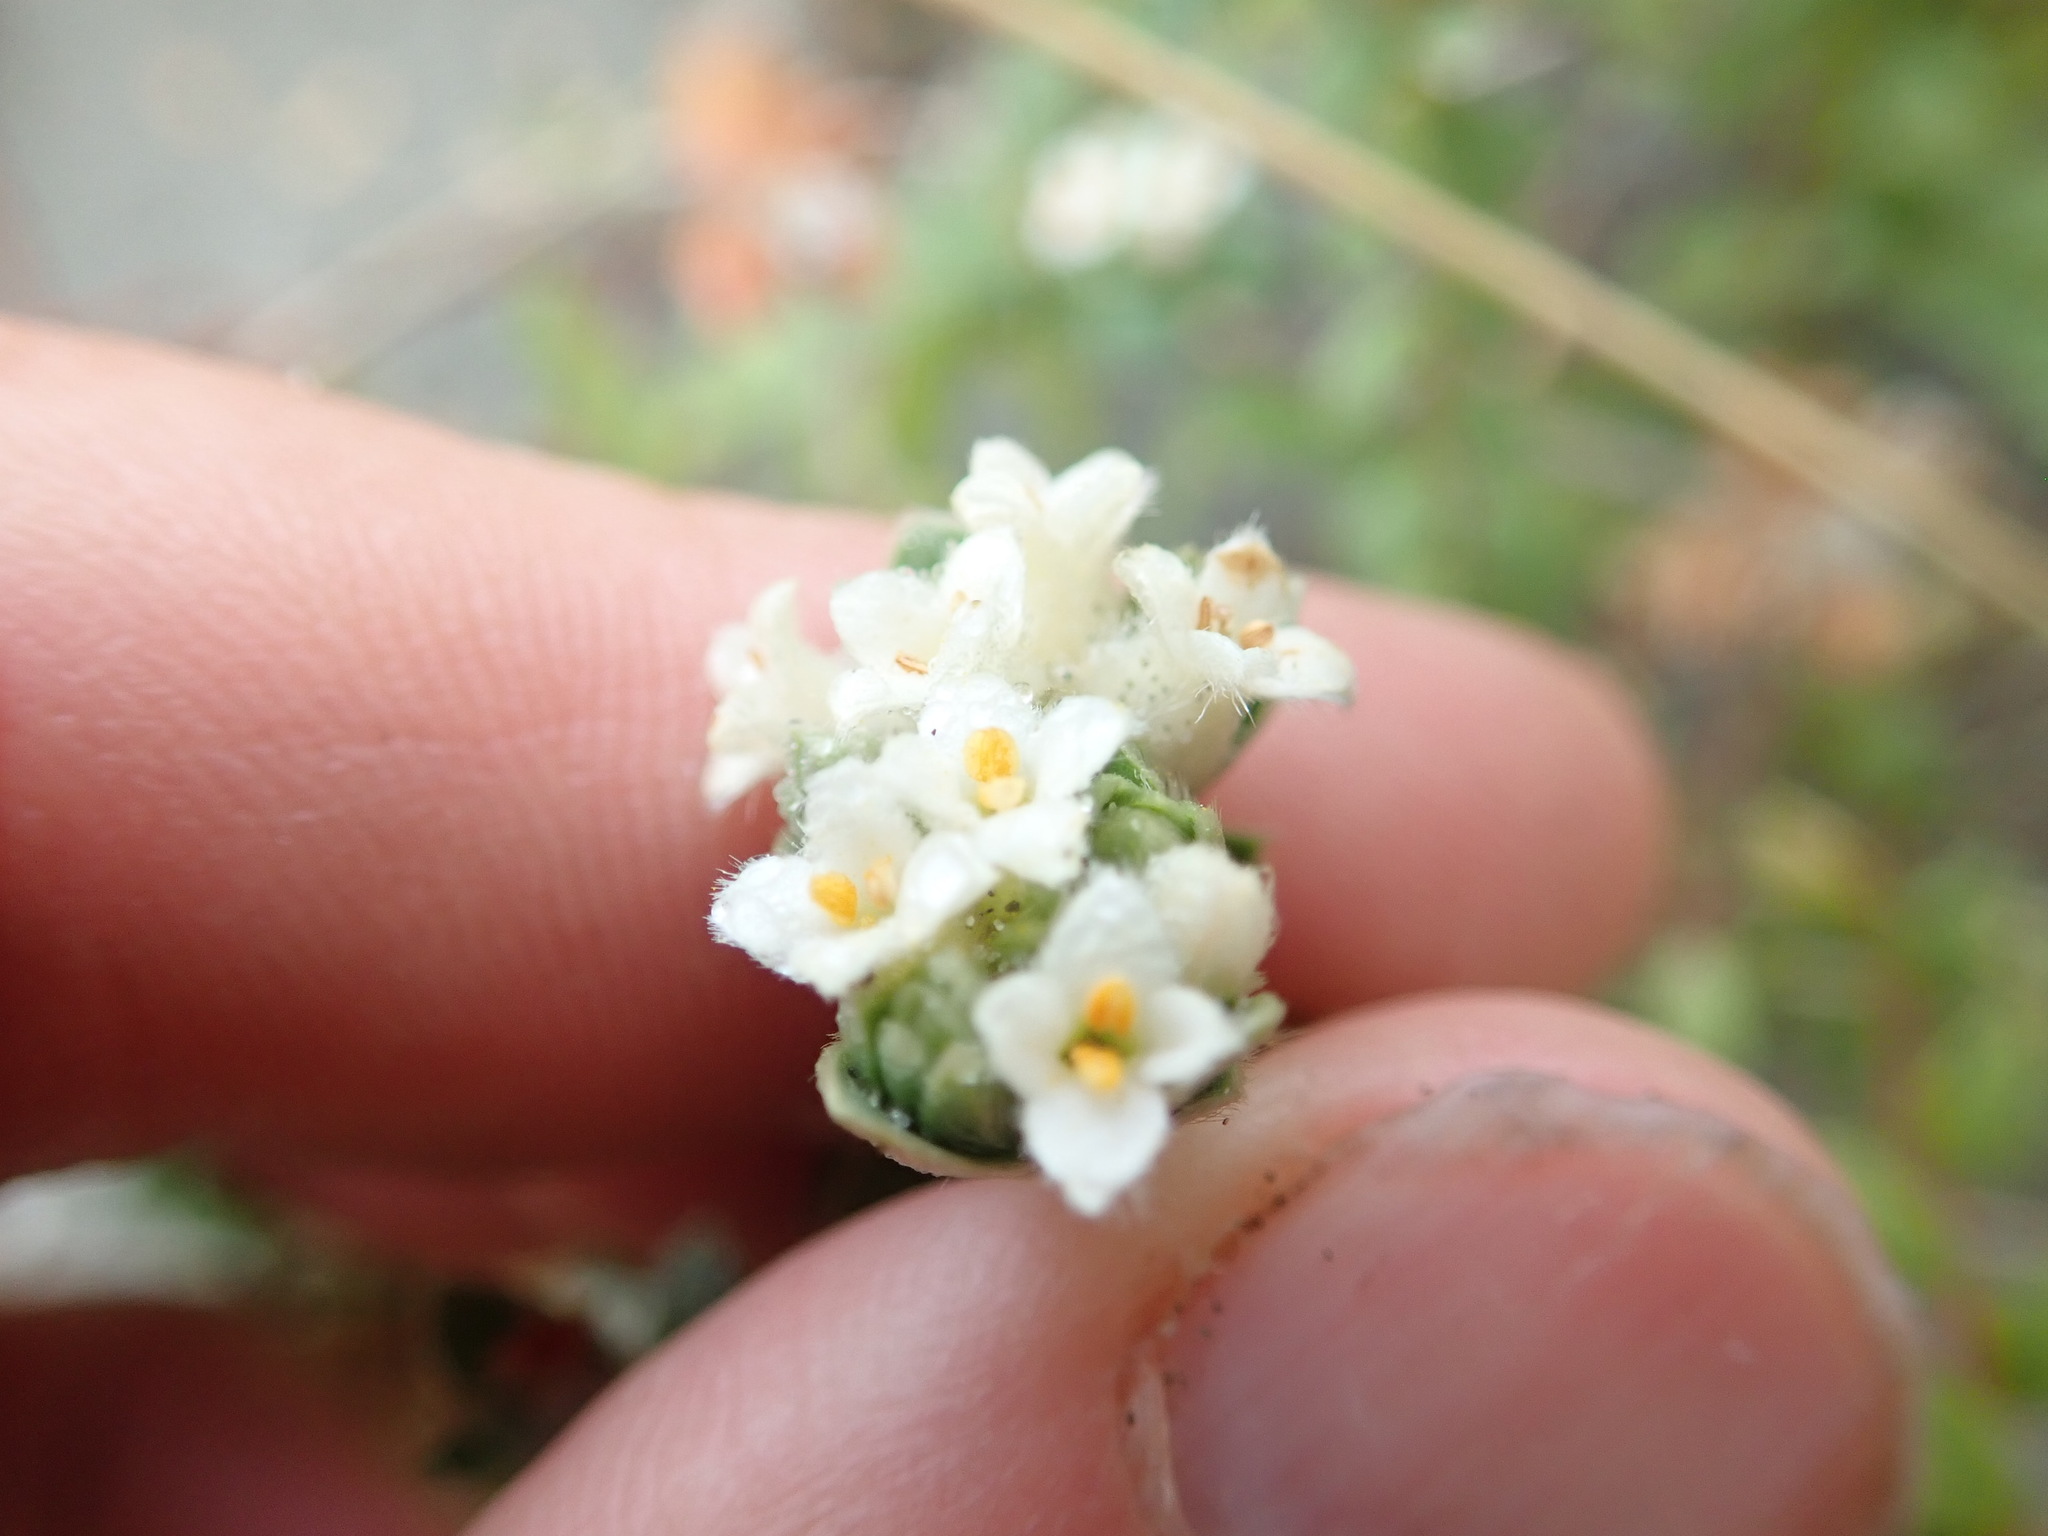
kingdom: Plantae
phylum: Tracheophyta
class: Magnoliopsida
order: Malvales
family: Thymelaeaceae
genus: Pimelea
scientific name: Pimelea villosa
